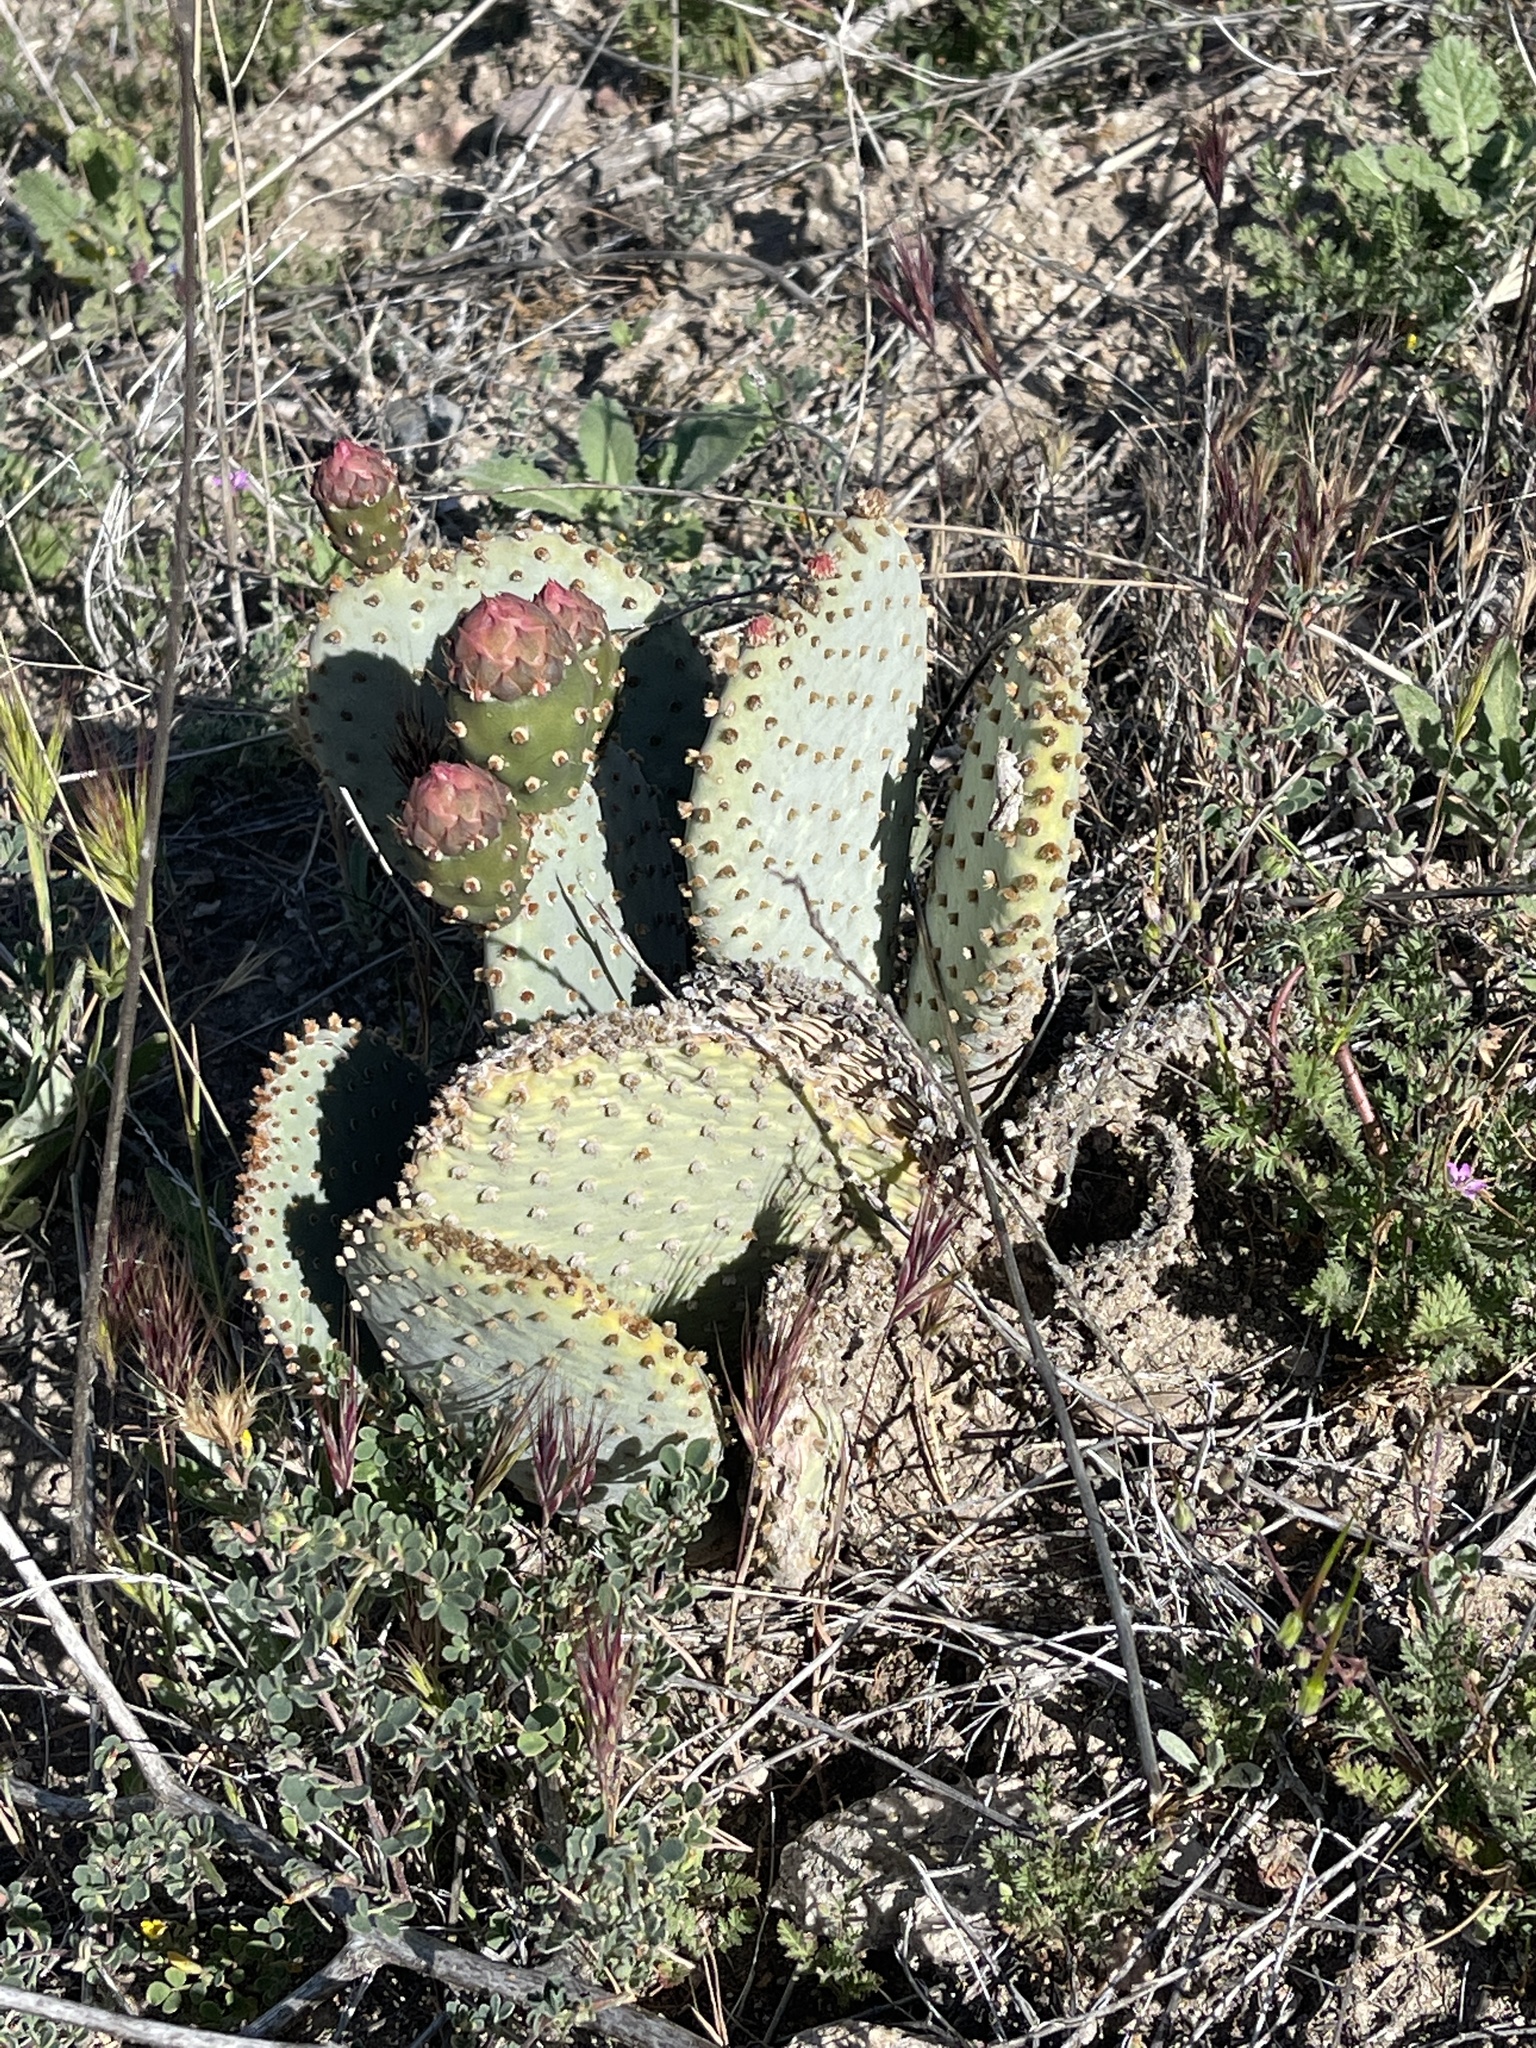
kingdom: Plantae
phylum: Tracheophyta
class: Magnoliopsida
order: Caryophyllales
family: Cactaceae
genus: Opuntia
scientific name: Opuntia basilaris
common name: Beavertail prickly-pear
